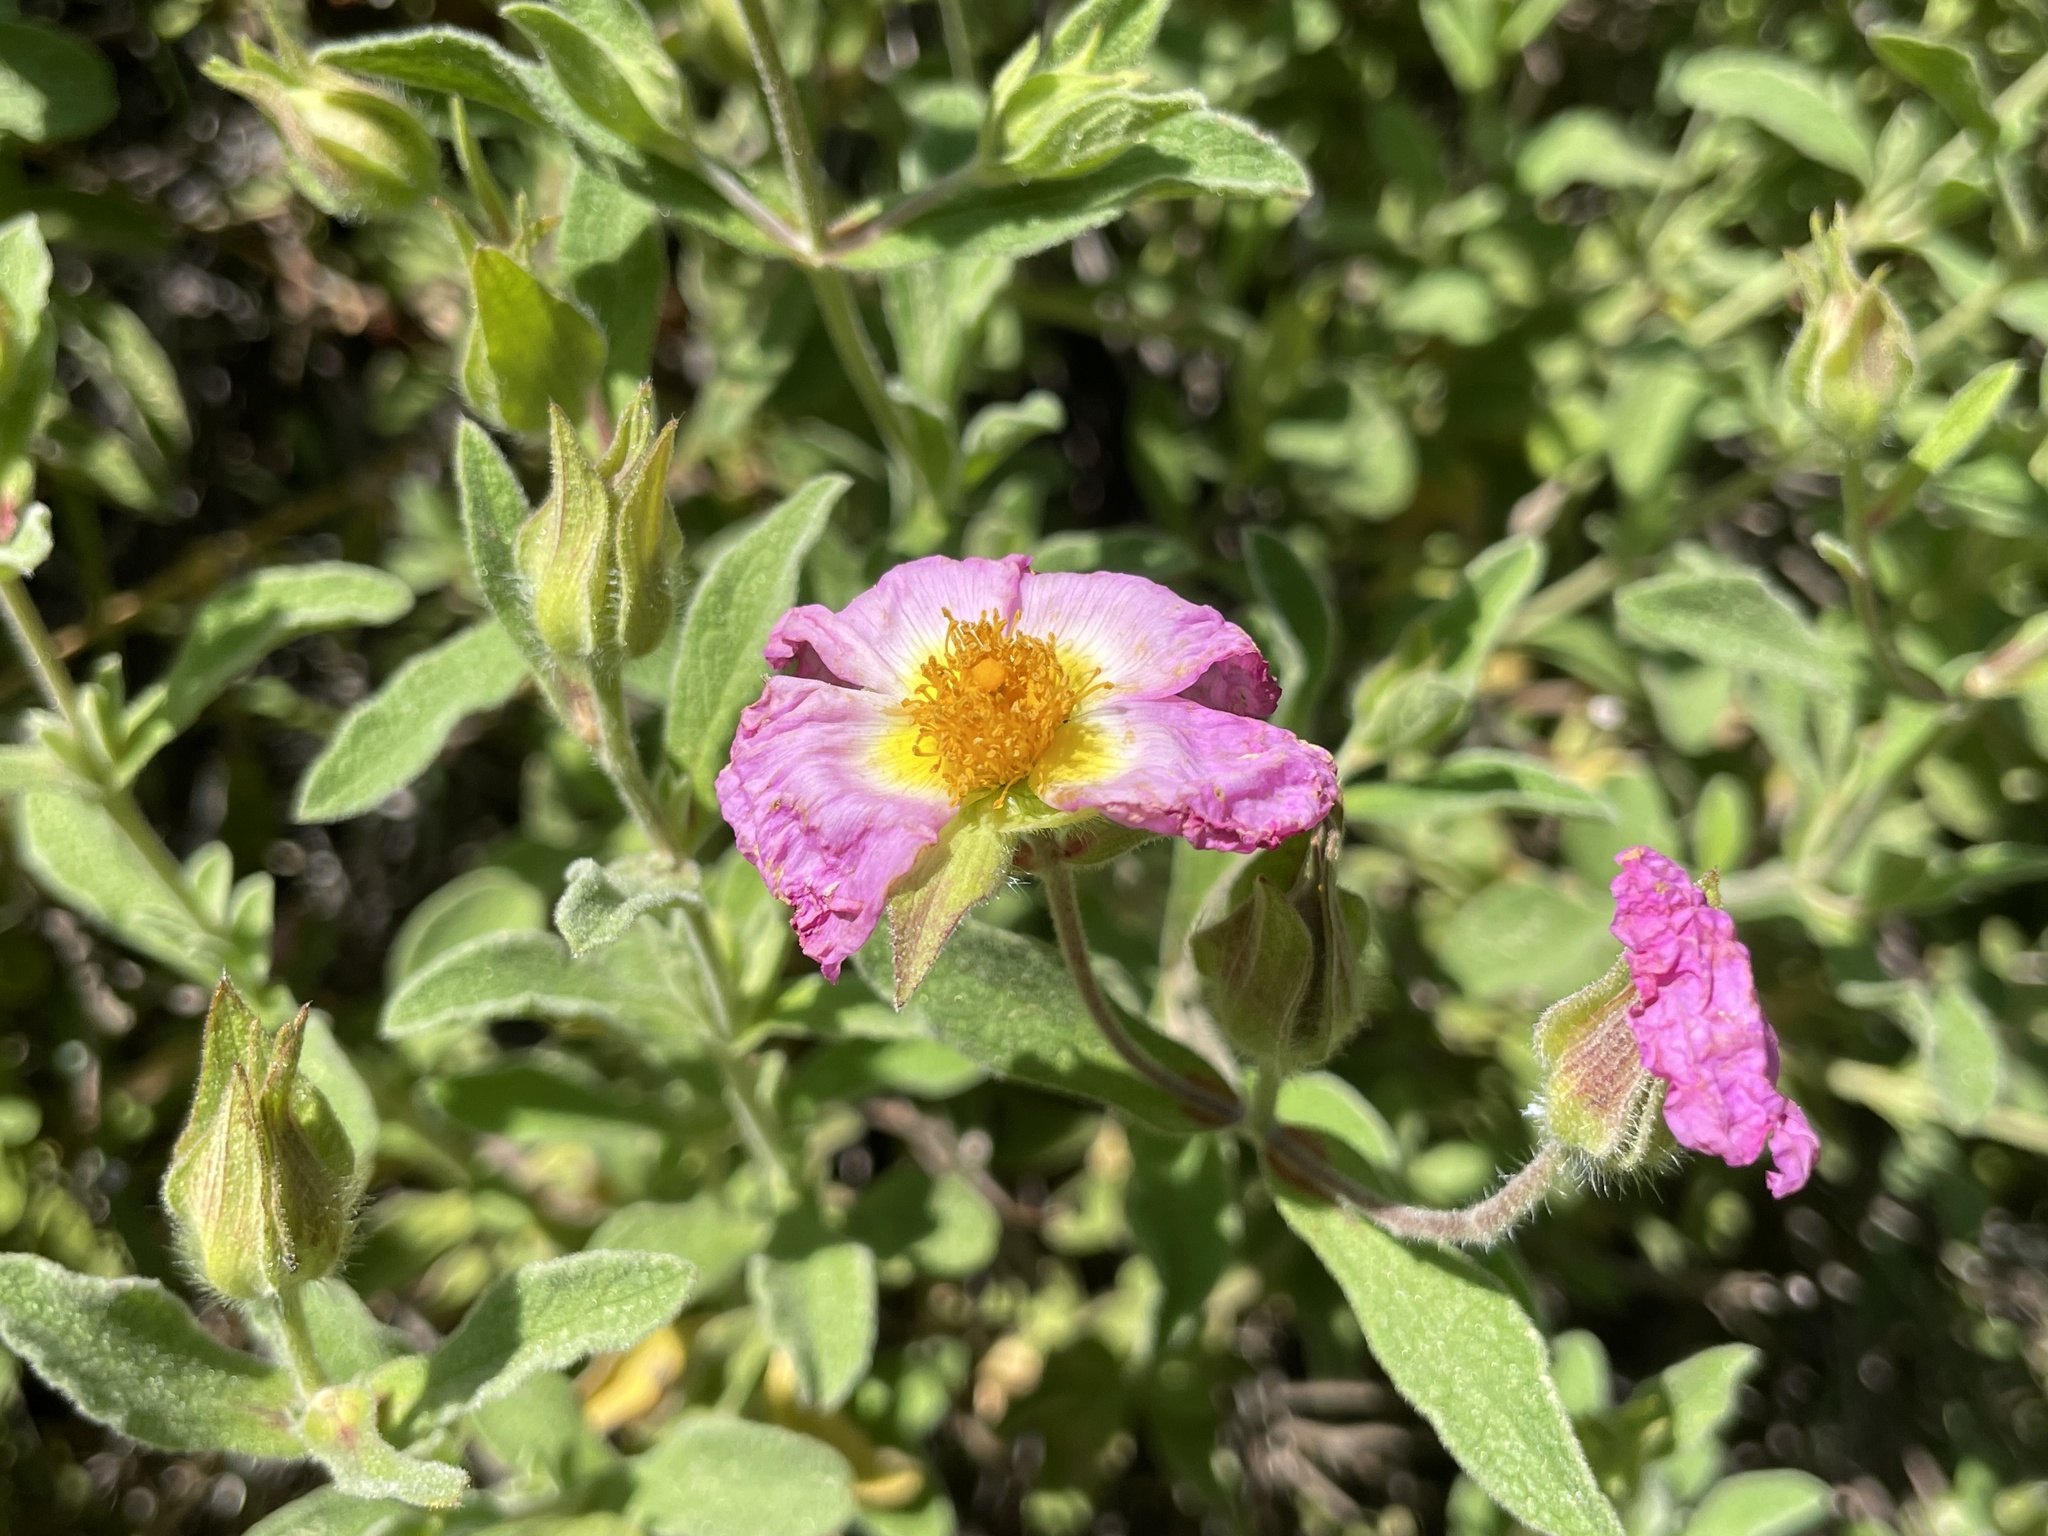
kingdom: Plantae
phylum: Tracheophyta
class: Magnoliopsida
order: Malvales
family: Cistaceae
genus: Cistus
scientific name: Cistus creticus
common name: Cretan rockrose
